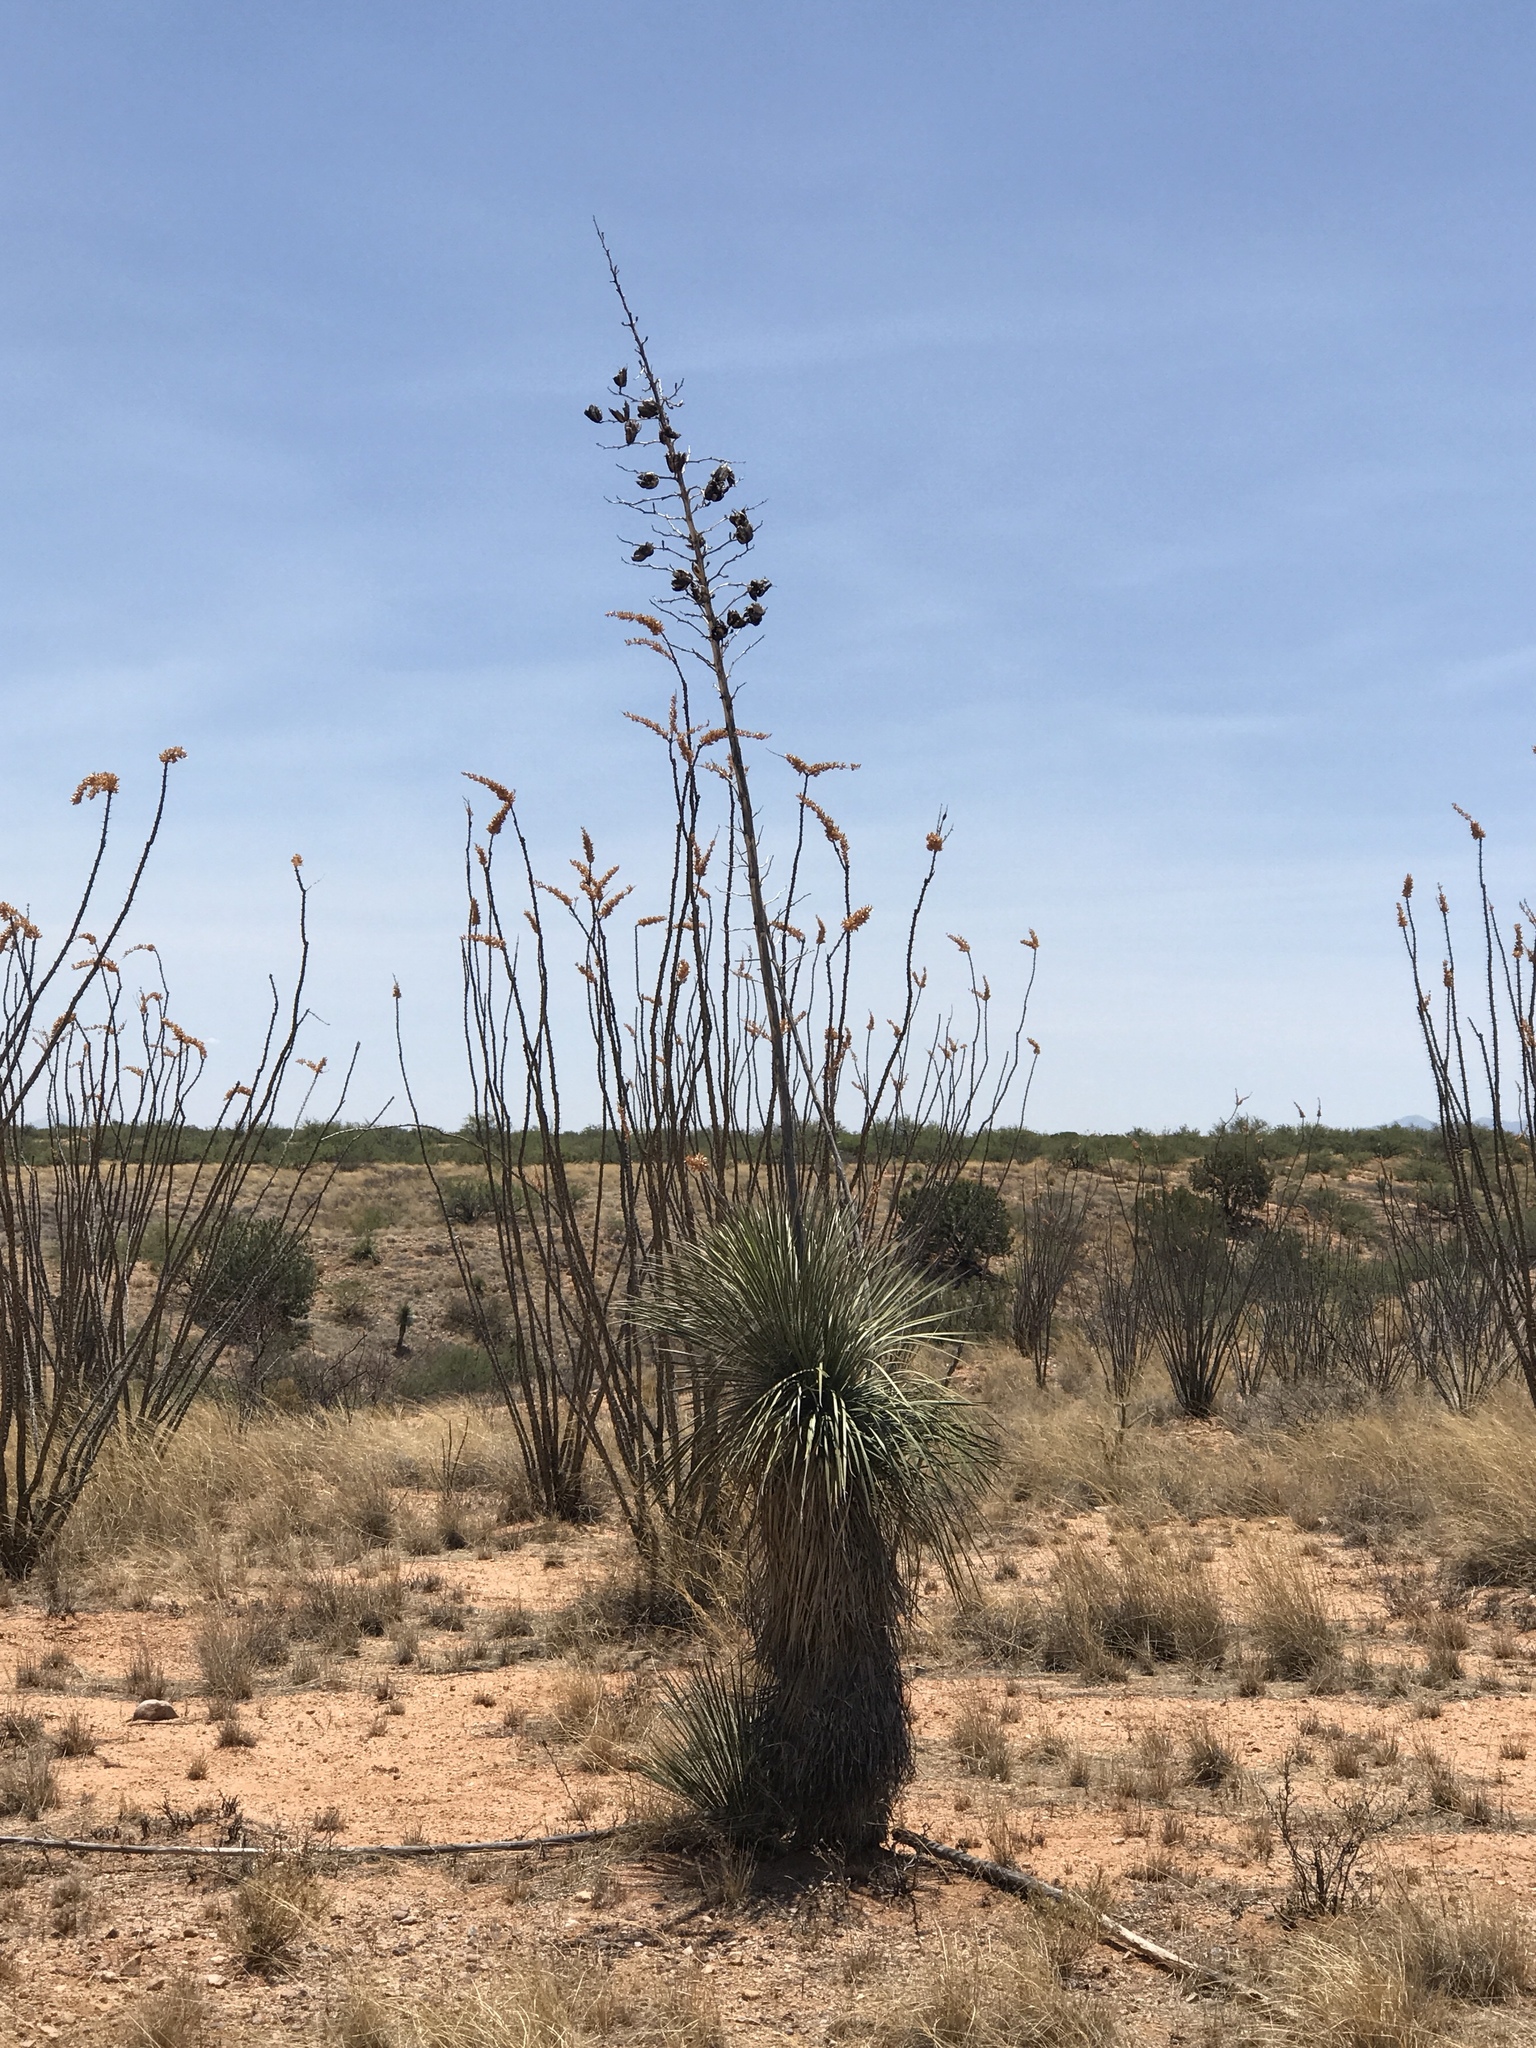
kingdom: Plantae
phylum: Tracheophyta
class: Liliopsida
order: Asparagales
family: Asparagaceae
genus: Yucca
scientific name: Yucca elata
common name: Palmella
